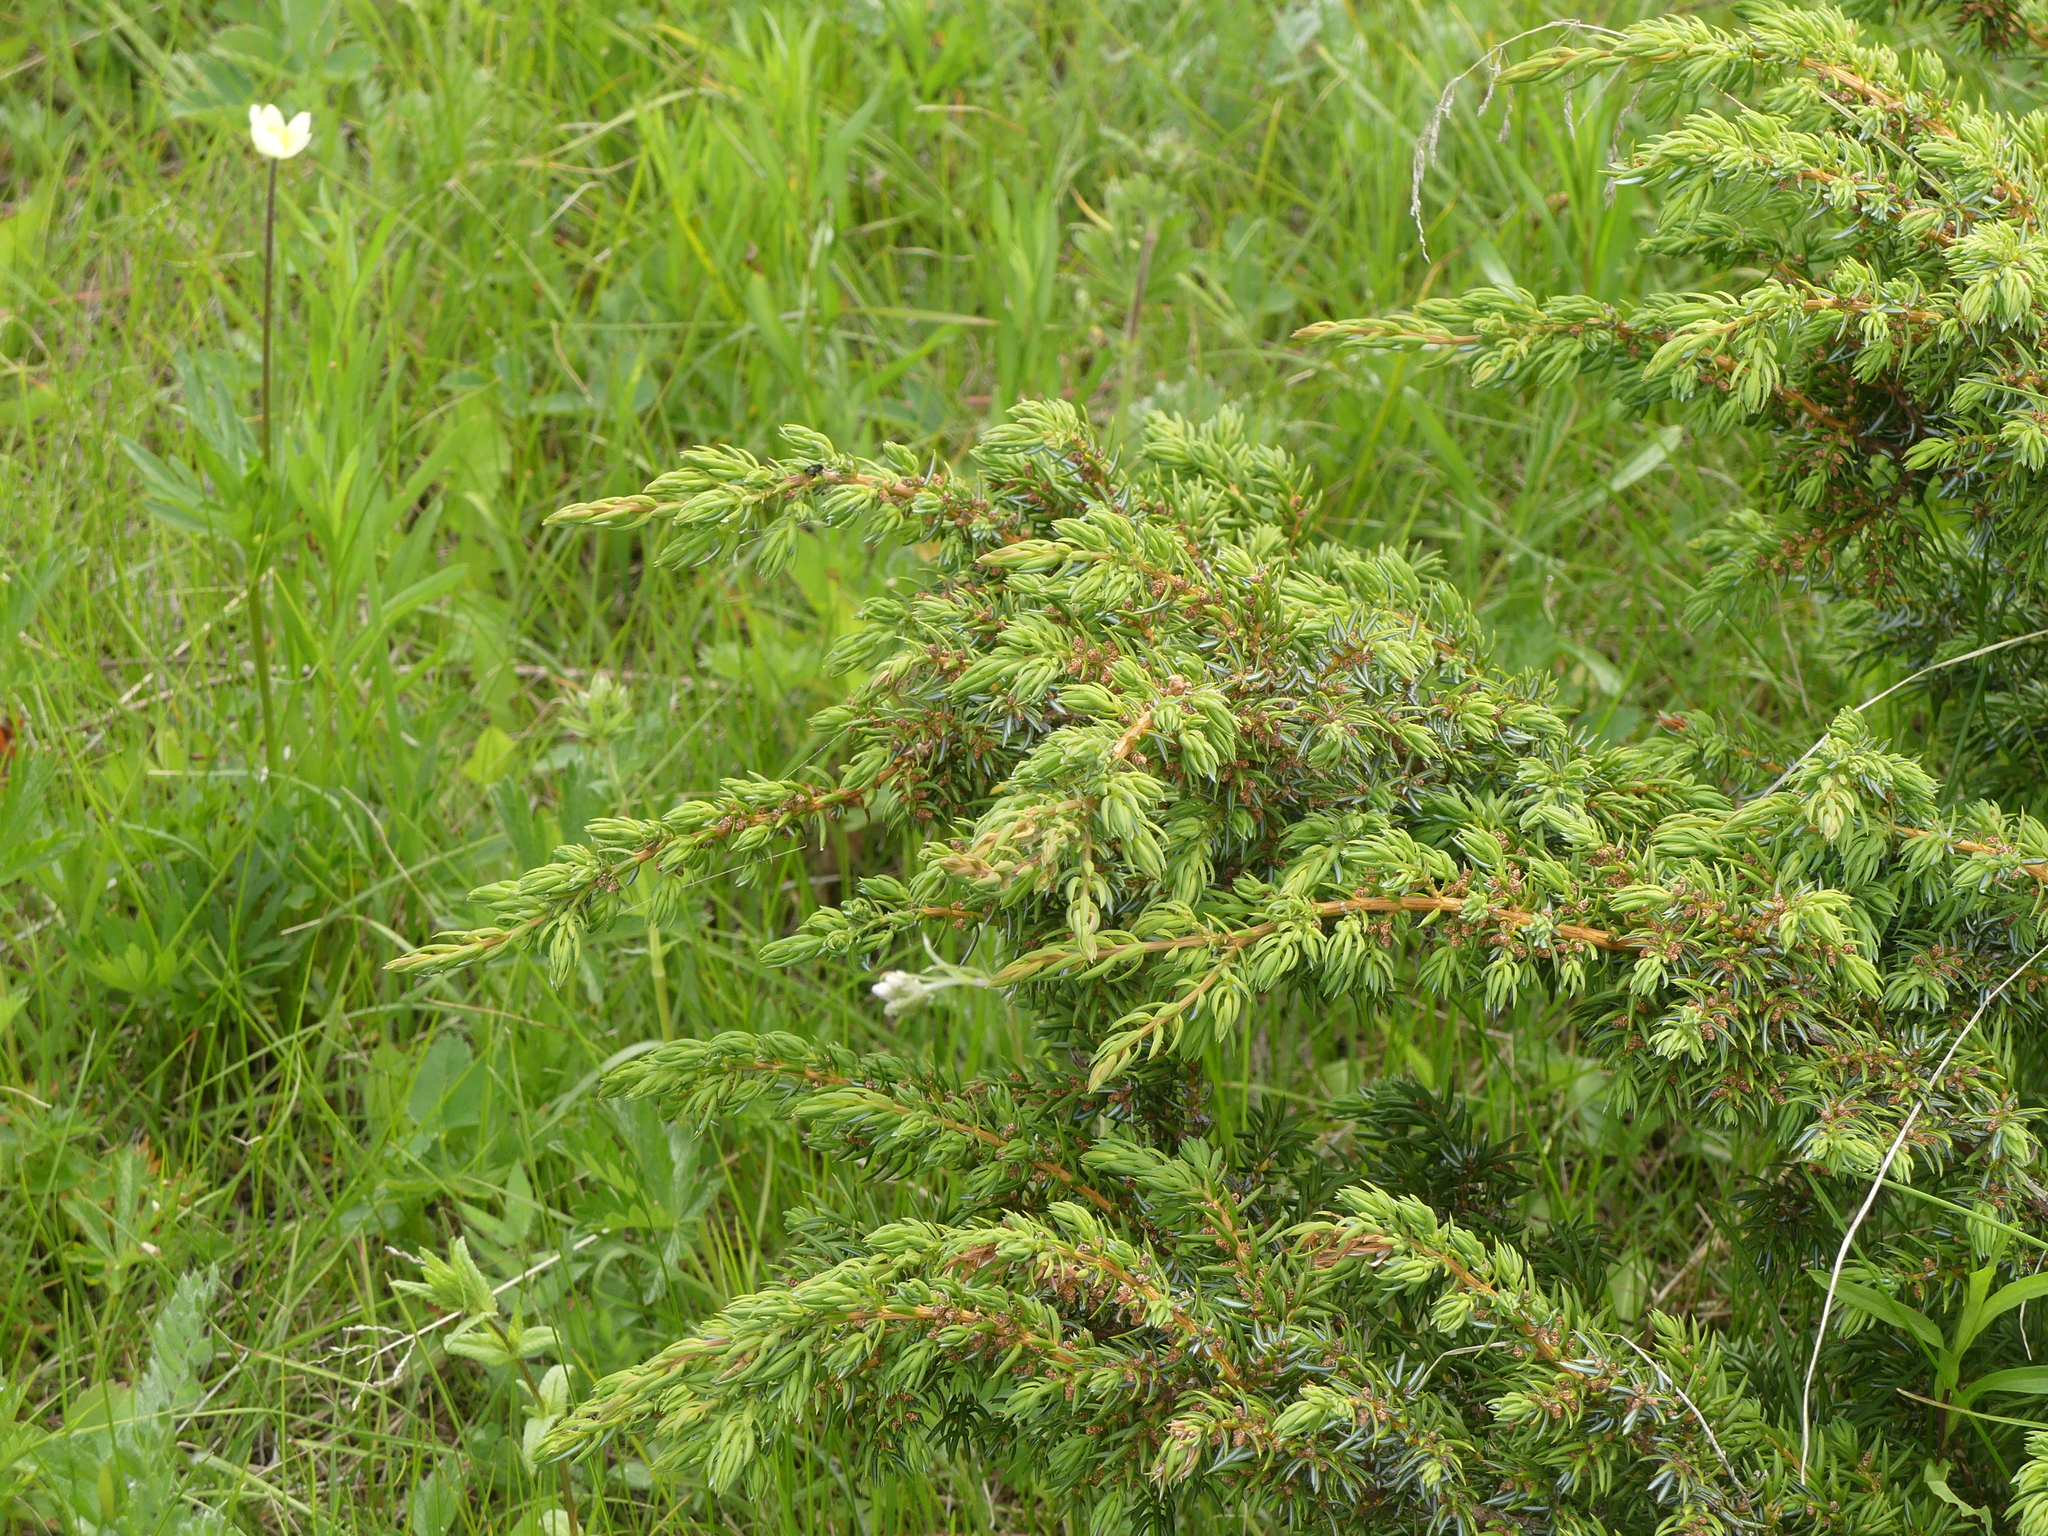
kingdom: Plantae
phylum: Tracheophyta
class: Pinopsida
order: Pinales
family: Cupressaceae
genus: Juniperus
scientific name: Juniperus communis
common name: Common juniper
